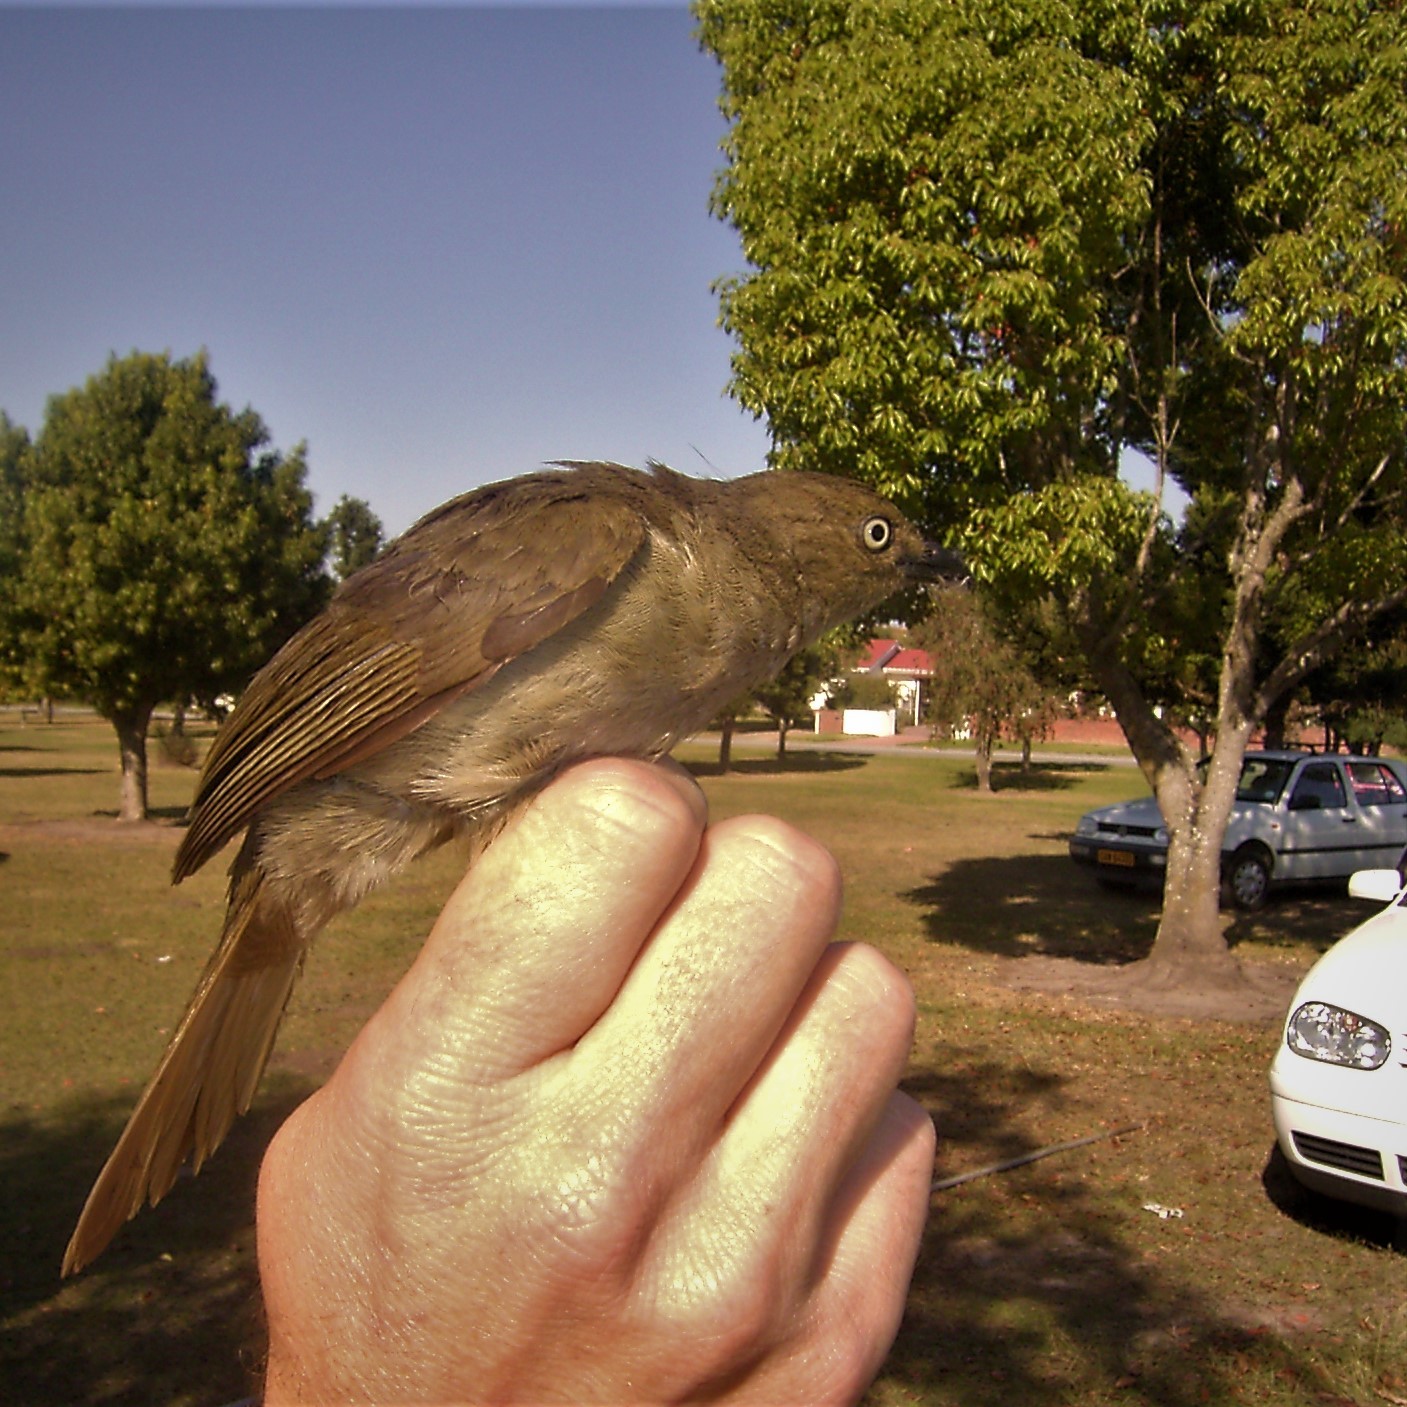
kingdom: Animalia
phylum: Chordata
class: Aves
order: Passeriformes
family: Pycnonotidae
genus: Andropadus
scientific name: Andropadus importunus
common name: Sombre greenbul
